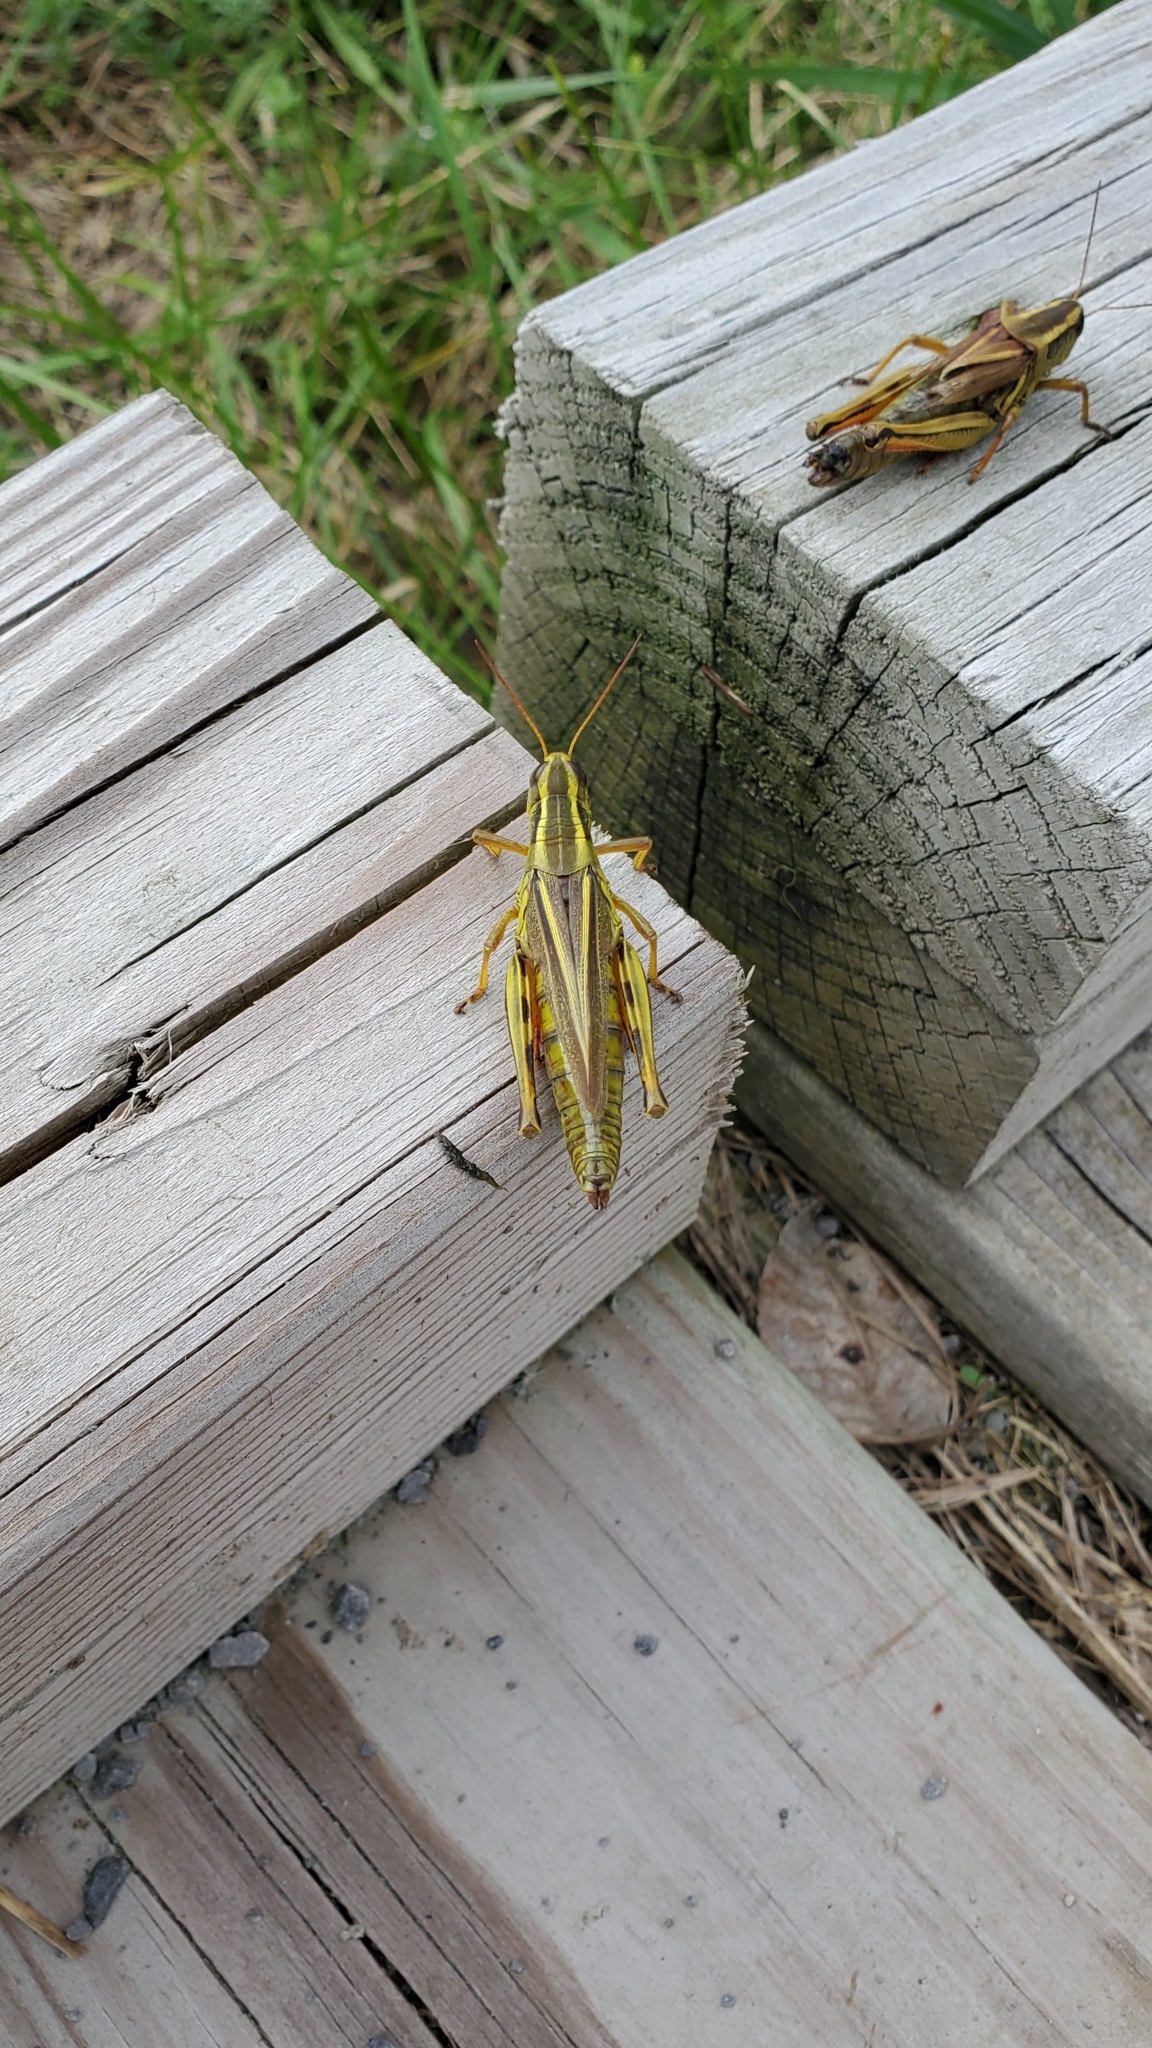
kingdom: Animalia
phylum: Arthropoda
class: Insecta
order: Orthoptera
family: Acrididae
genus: Melanoplus
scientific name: Melanoplus bivittatus
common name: Two-striped grasshopper
